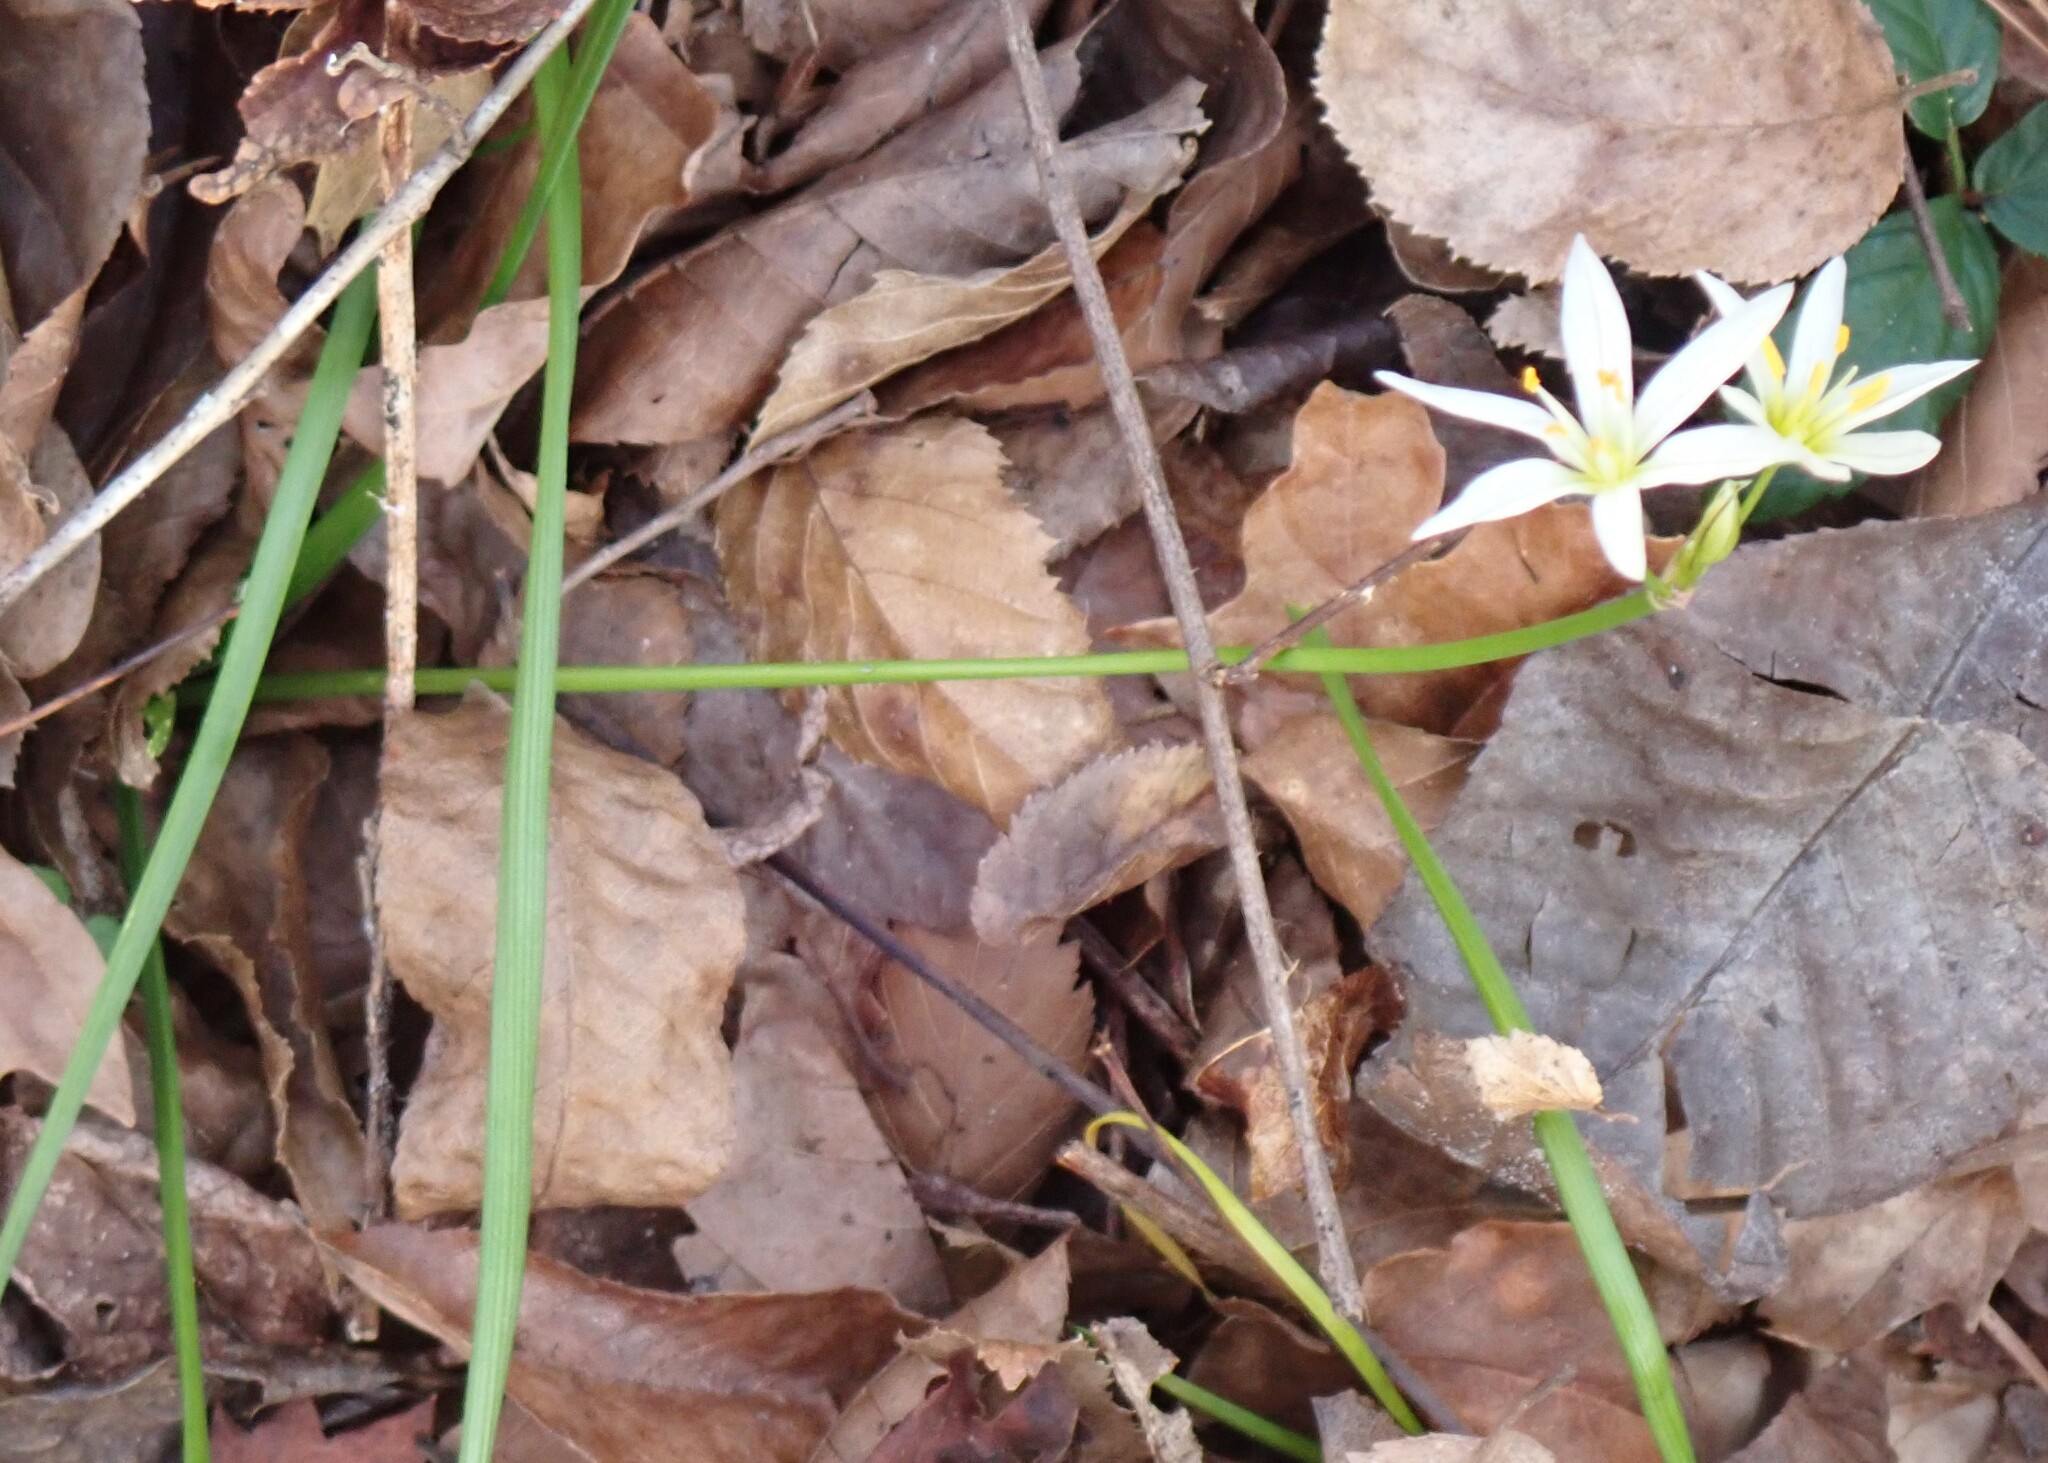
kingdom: Plantae
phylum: Tracheophyta
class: Liliopsida
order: Asparagales
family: Amaryllidaceae
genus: Nothoscordum
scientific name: Nothoscordum bivalve
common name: Crow-poison
